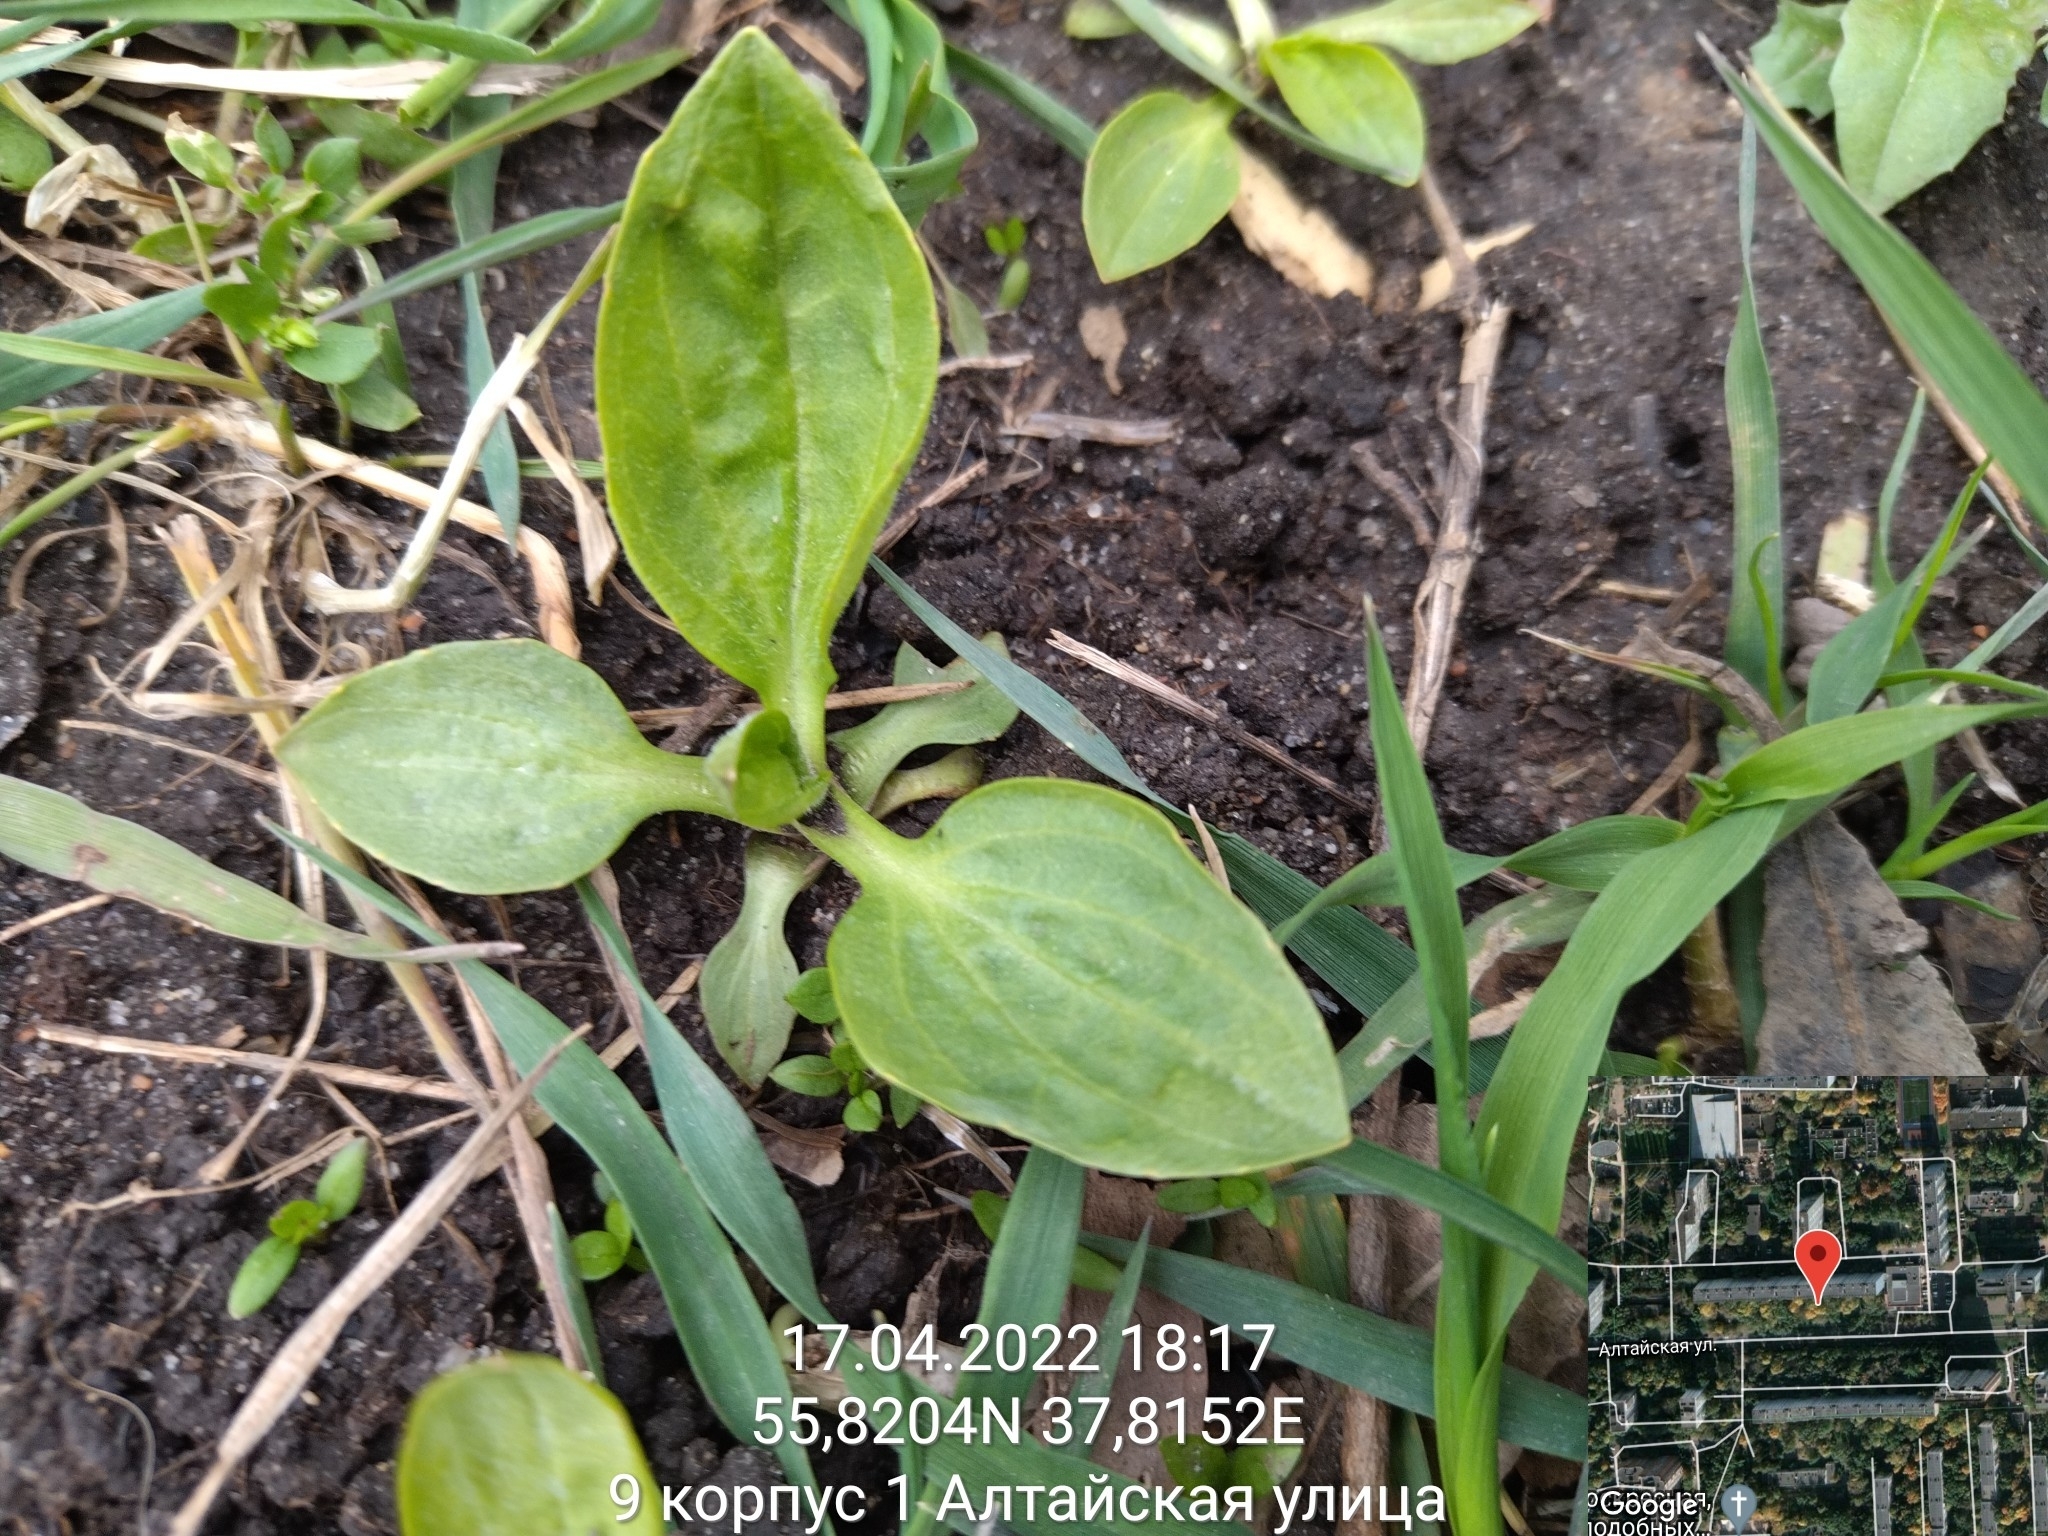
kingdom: Plantae
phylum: Tracheophyta
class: Magnoliopsida
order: Lamiales
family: Plantaginaceae
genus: Plantago
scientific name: Plantago major
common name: Common plantain
